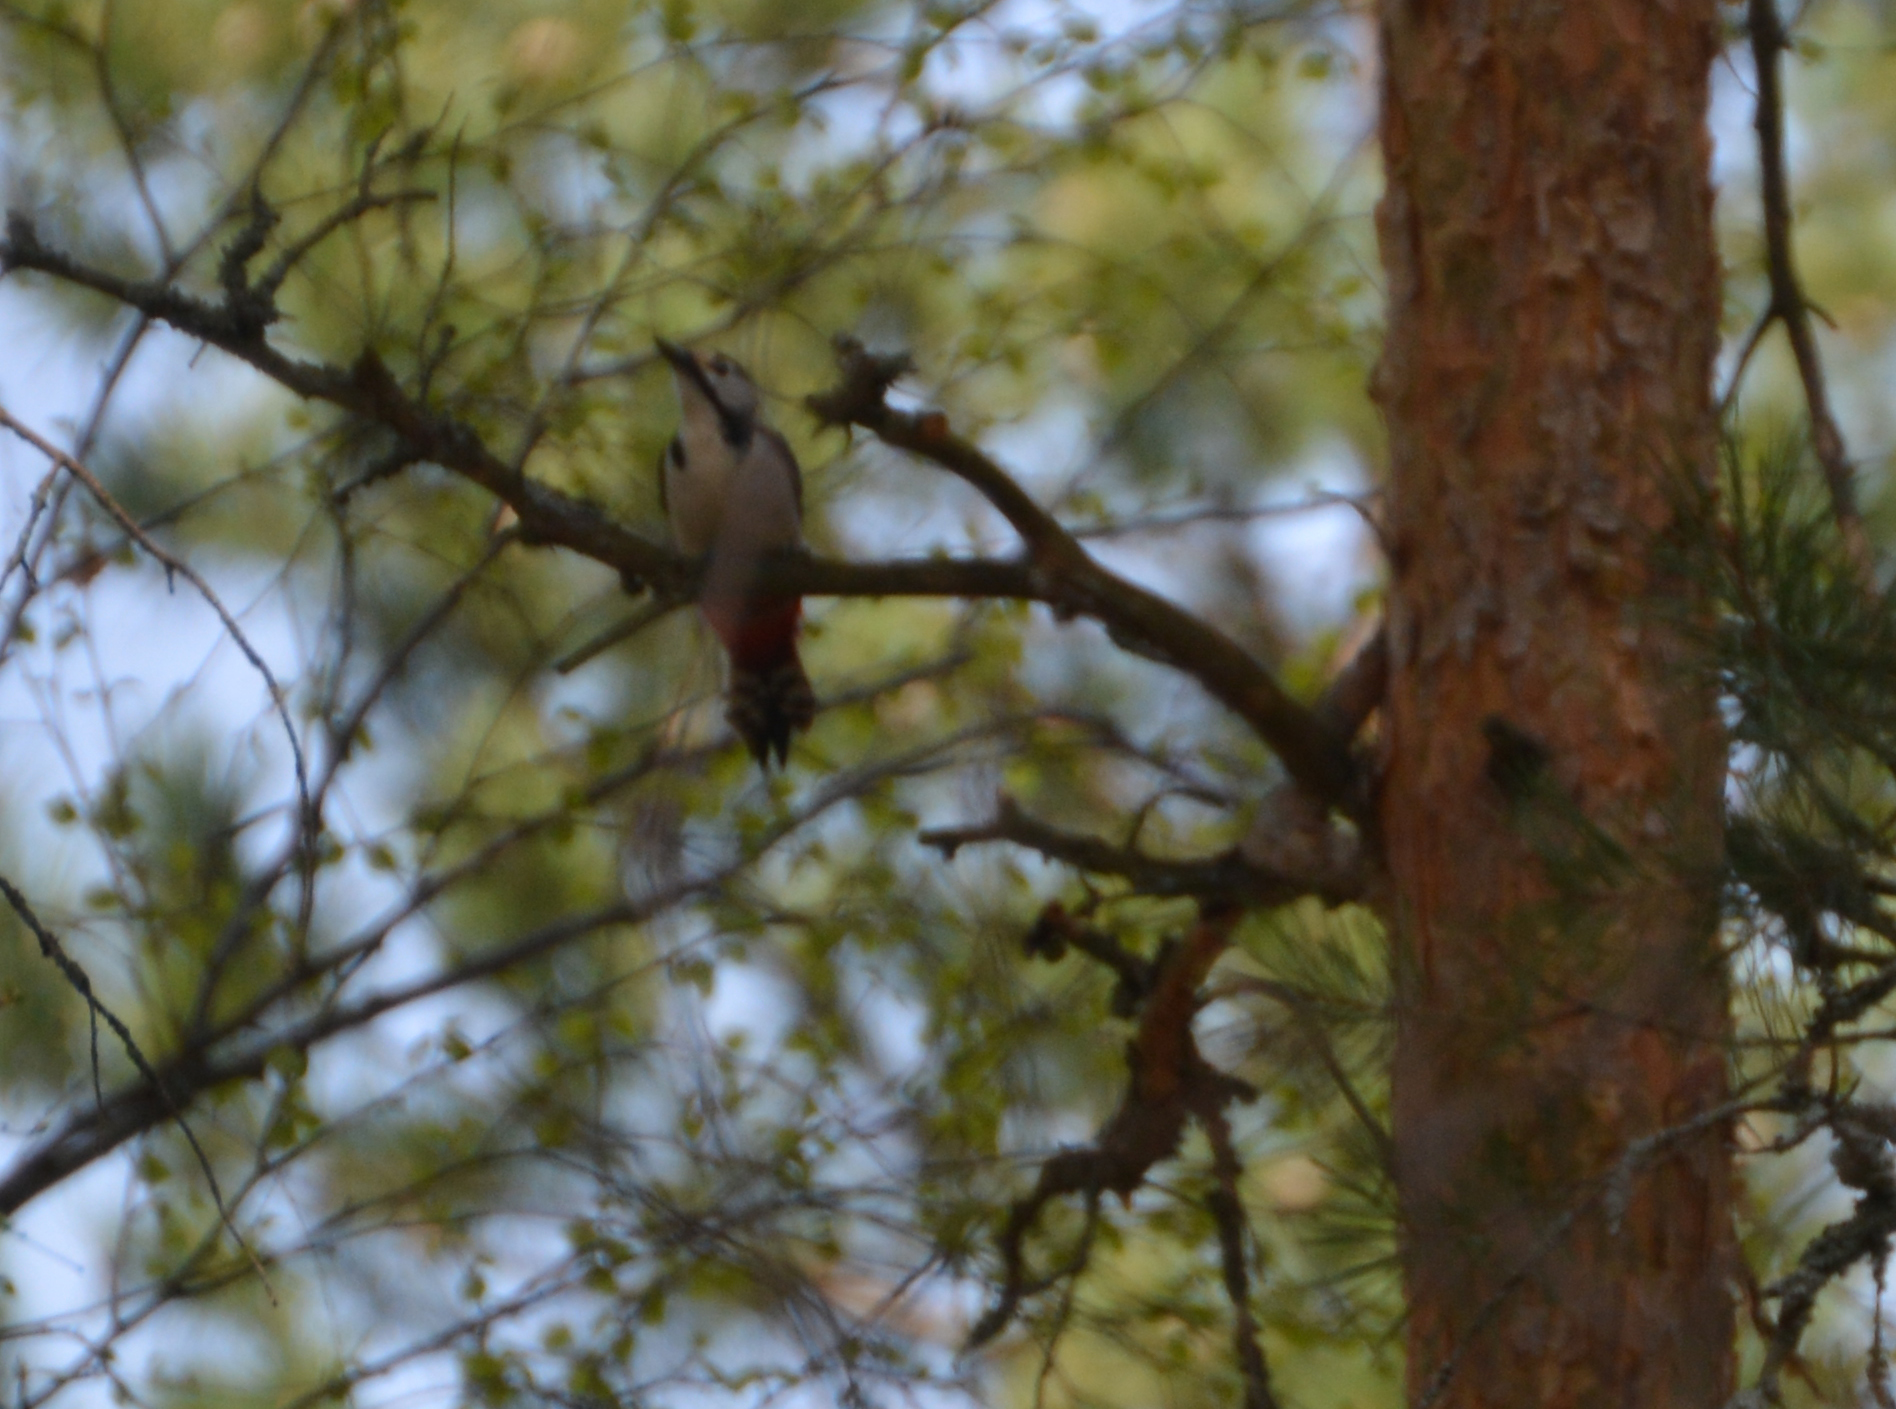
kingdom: Animalia
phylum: Chordata
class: Aves
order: Piciformes
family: Picidae
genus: Dendrocopos
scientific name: Dendrocopos major
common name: Great spotted woodpecker
